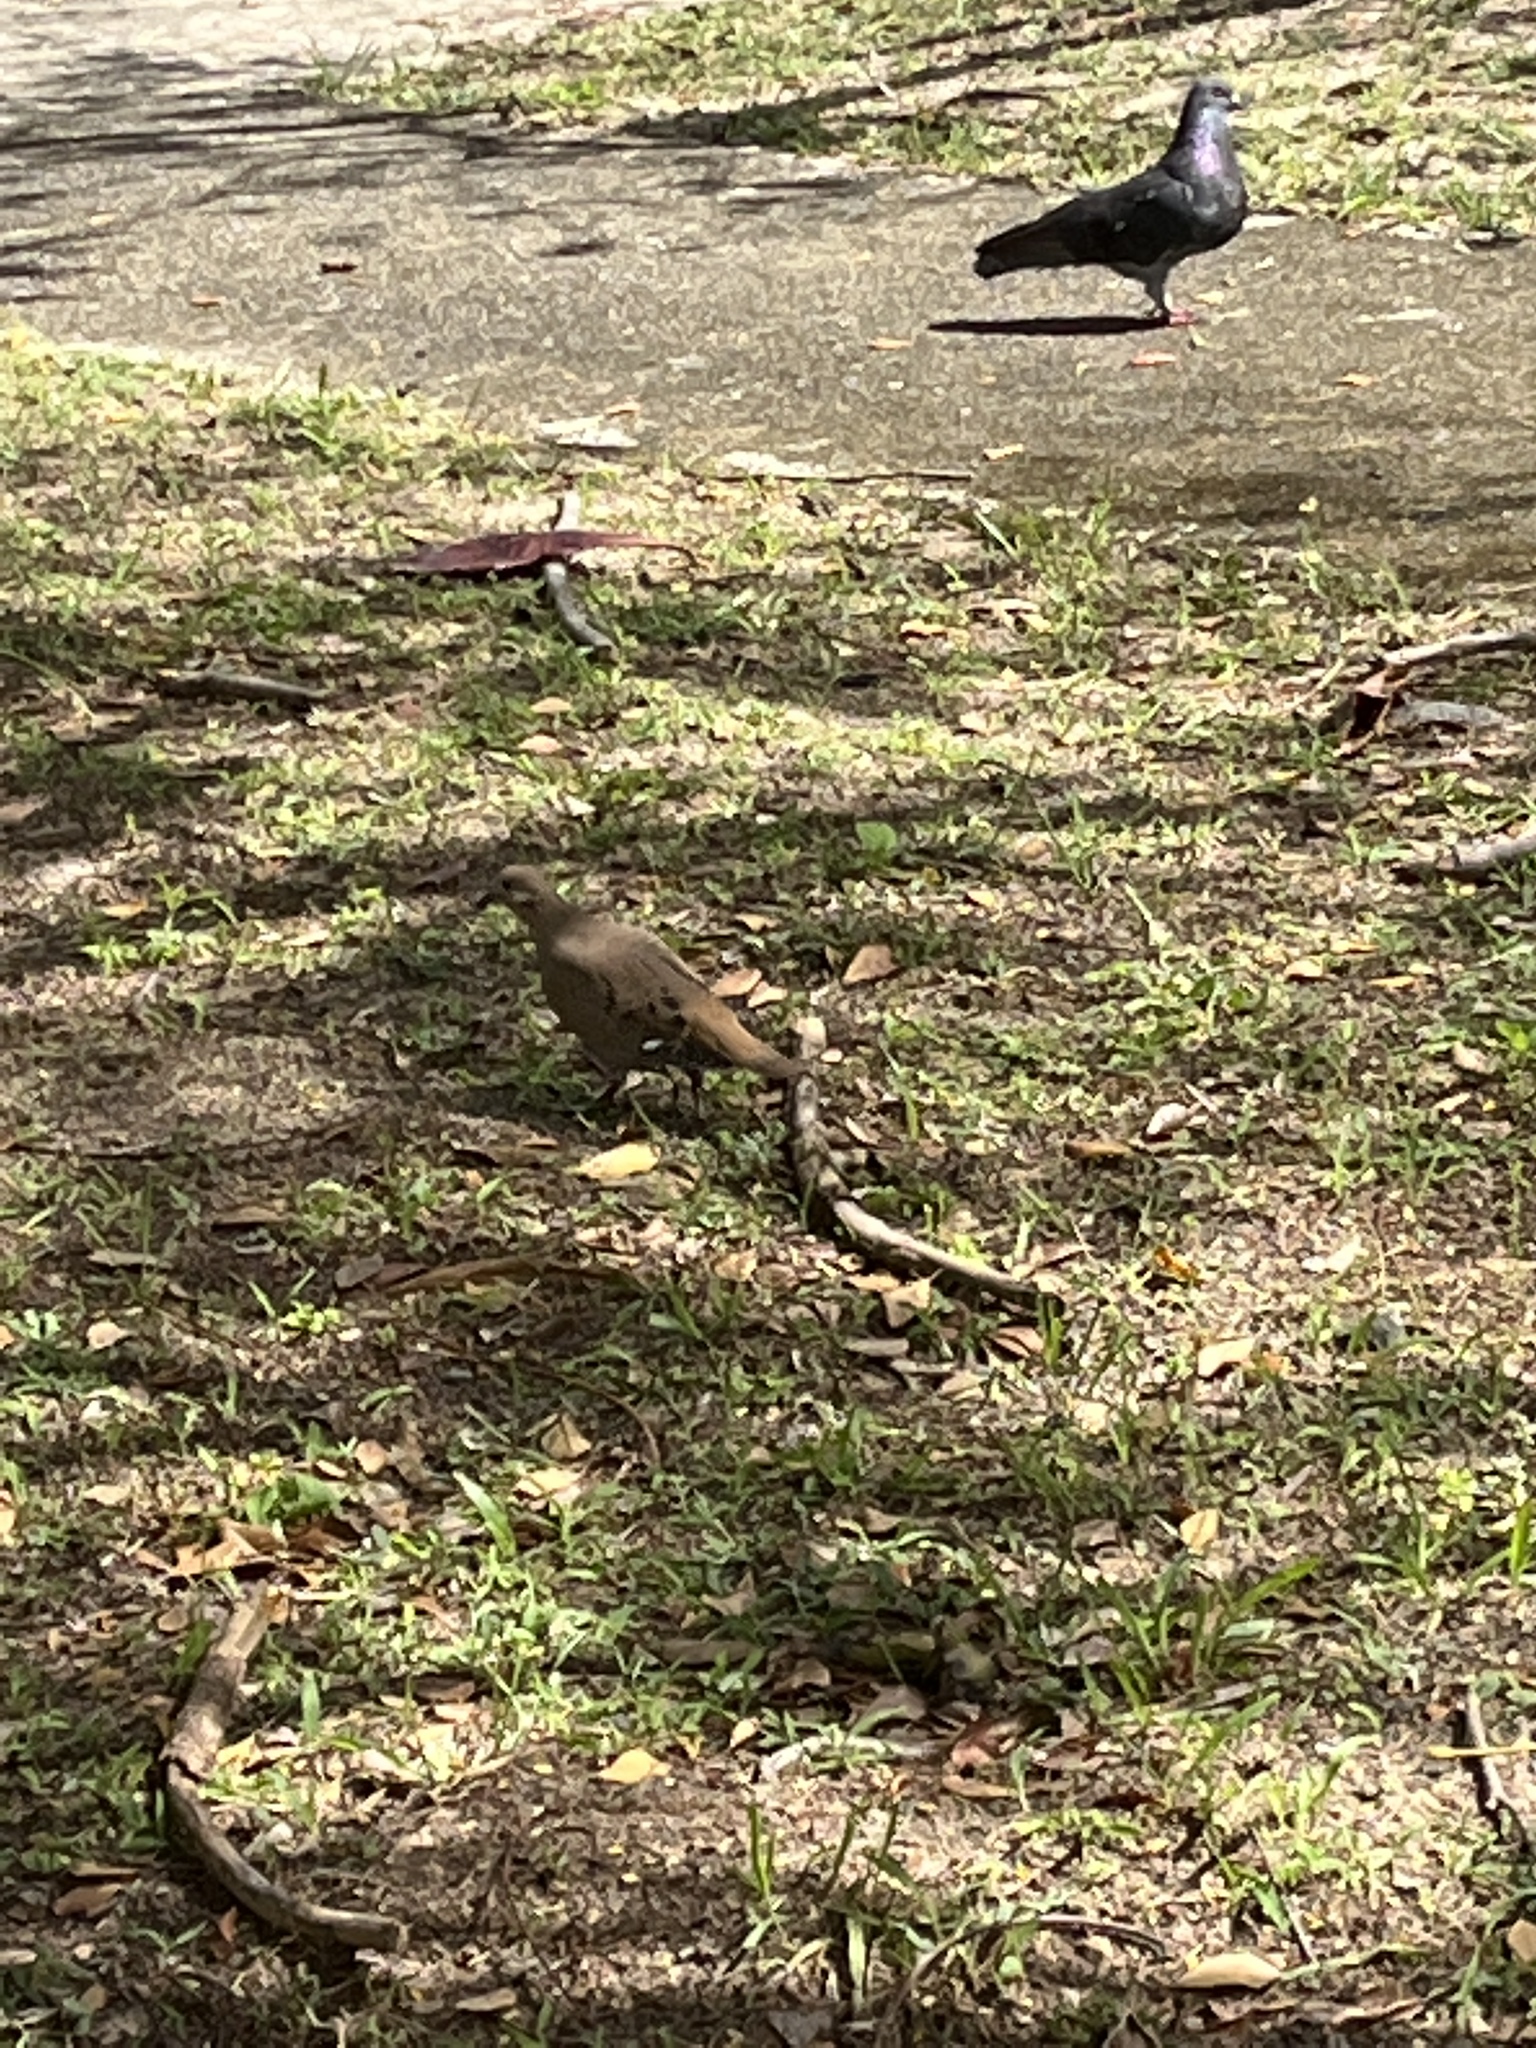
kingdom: Animalia
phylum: Chordata
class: Aves
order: Columbiformes
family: Columbidae
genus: Zenaida
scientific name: Zenaida aurita
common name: Zenaida dove
